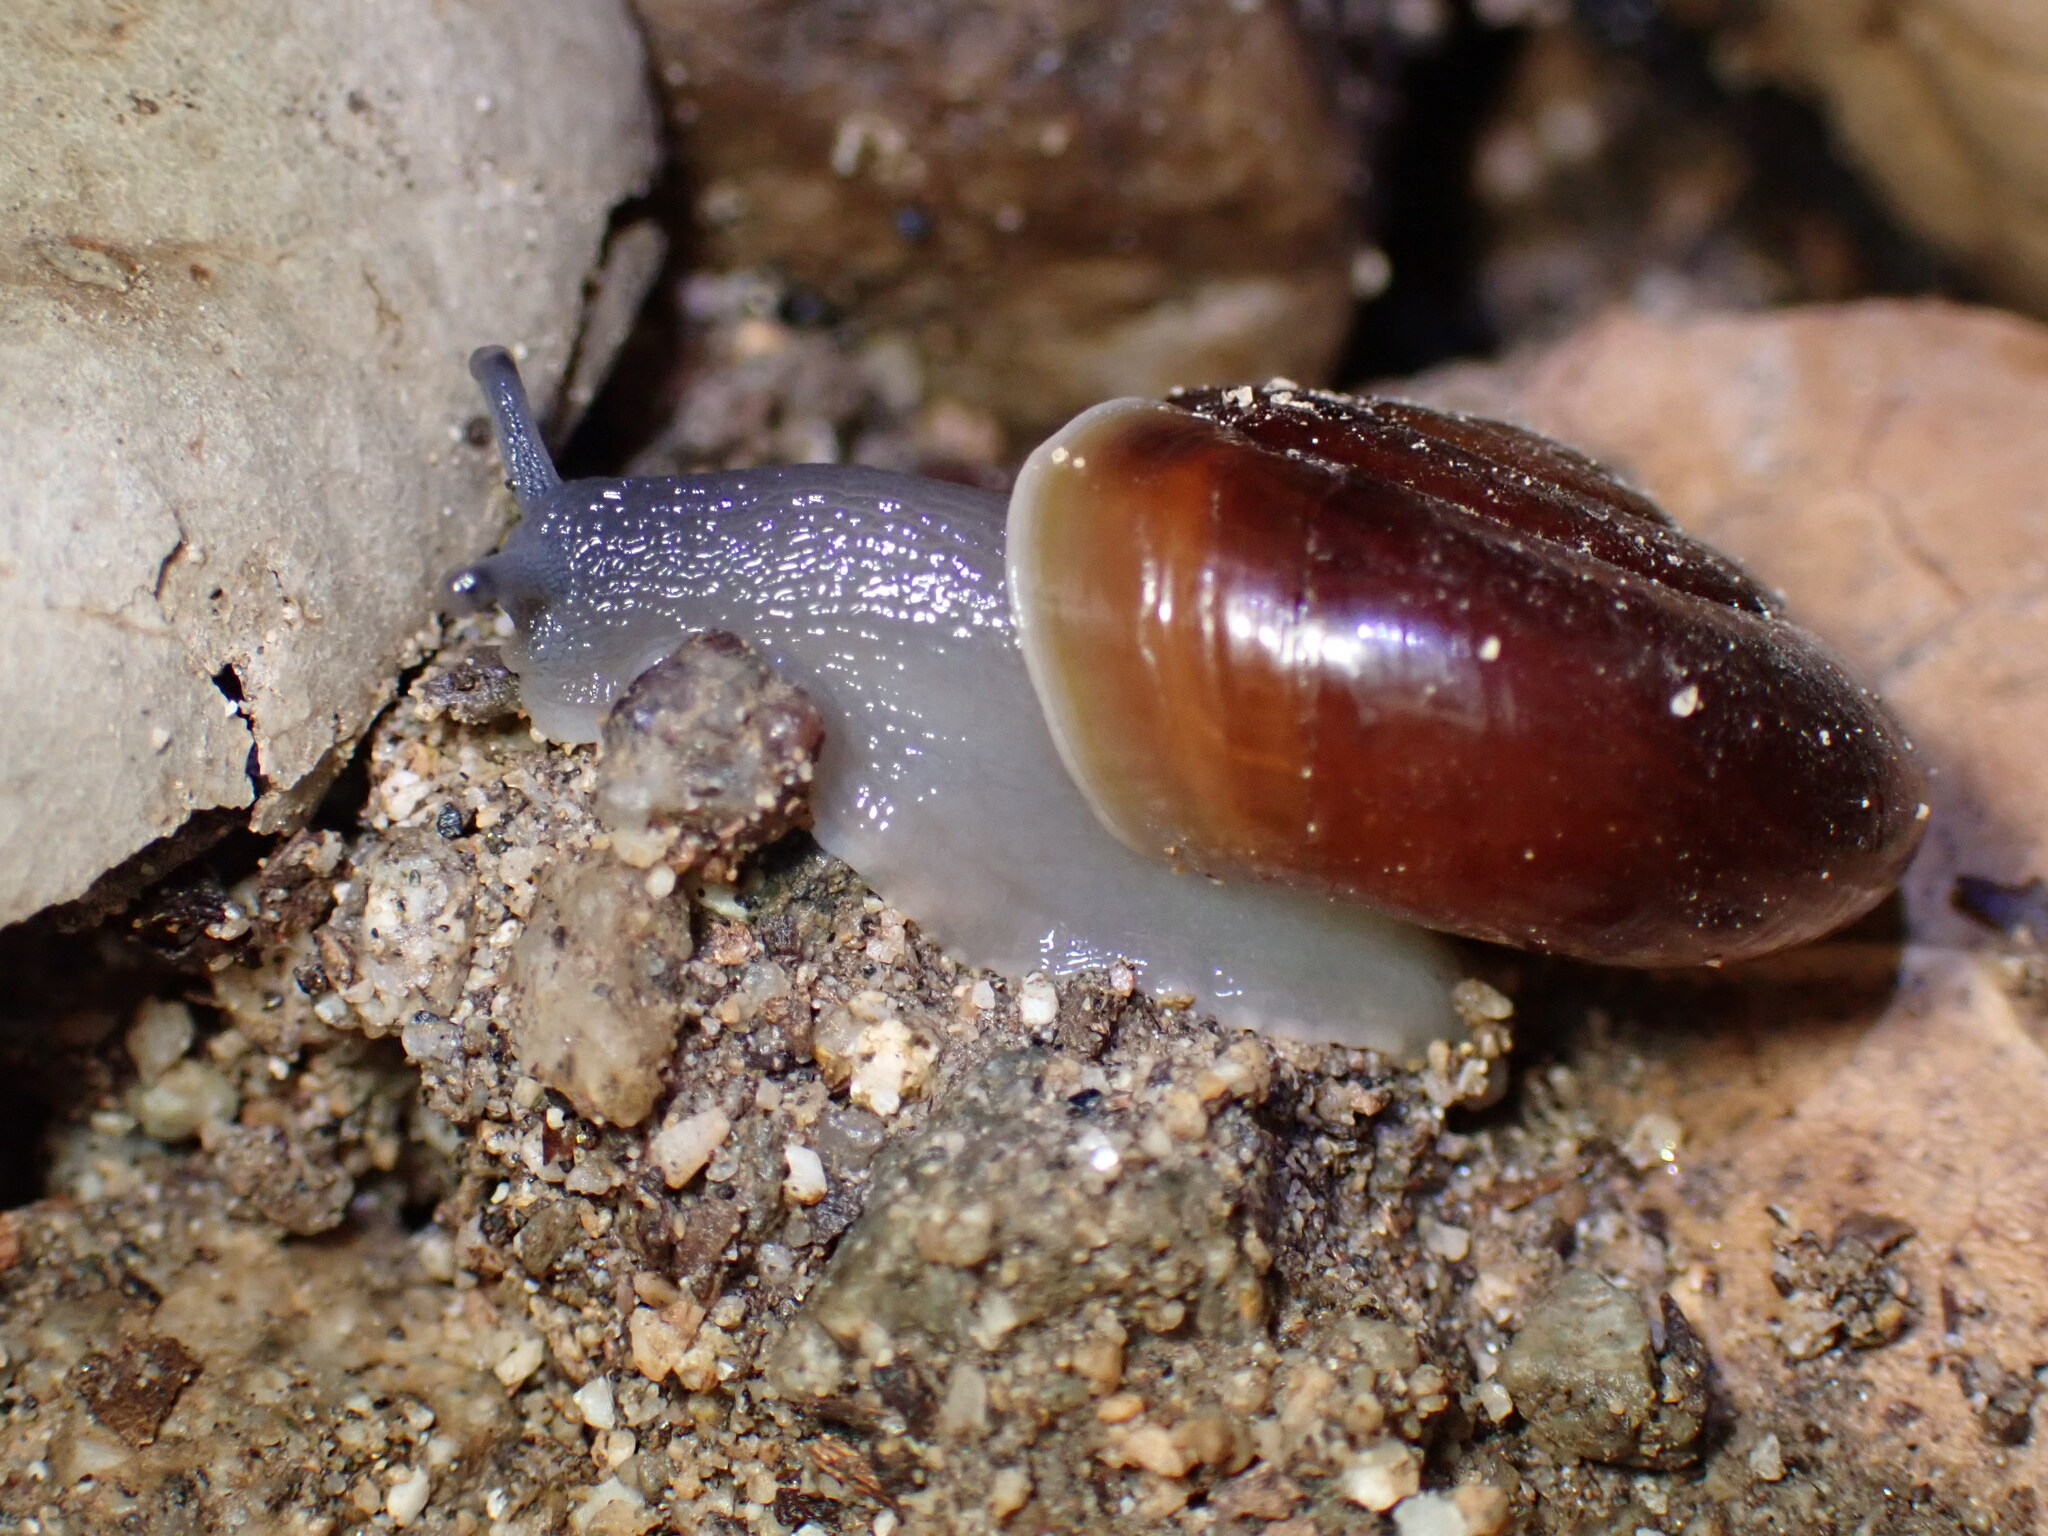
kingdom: Animalia
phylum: Mollusca
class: Gastropoda
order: Stylommatophora
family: Megomphicidae
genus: Glyptostoma
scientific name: Glyptostoma gabrielense
